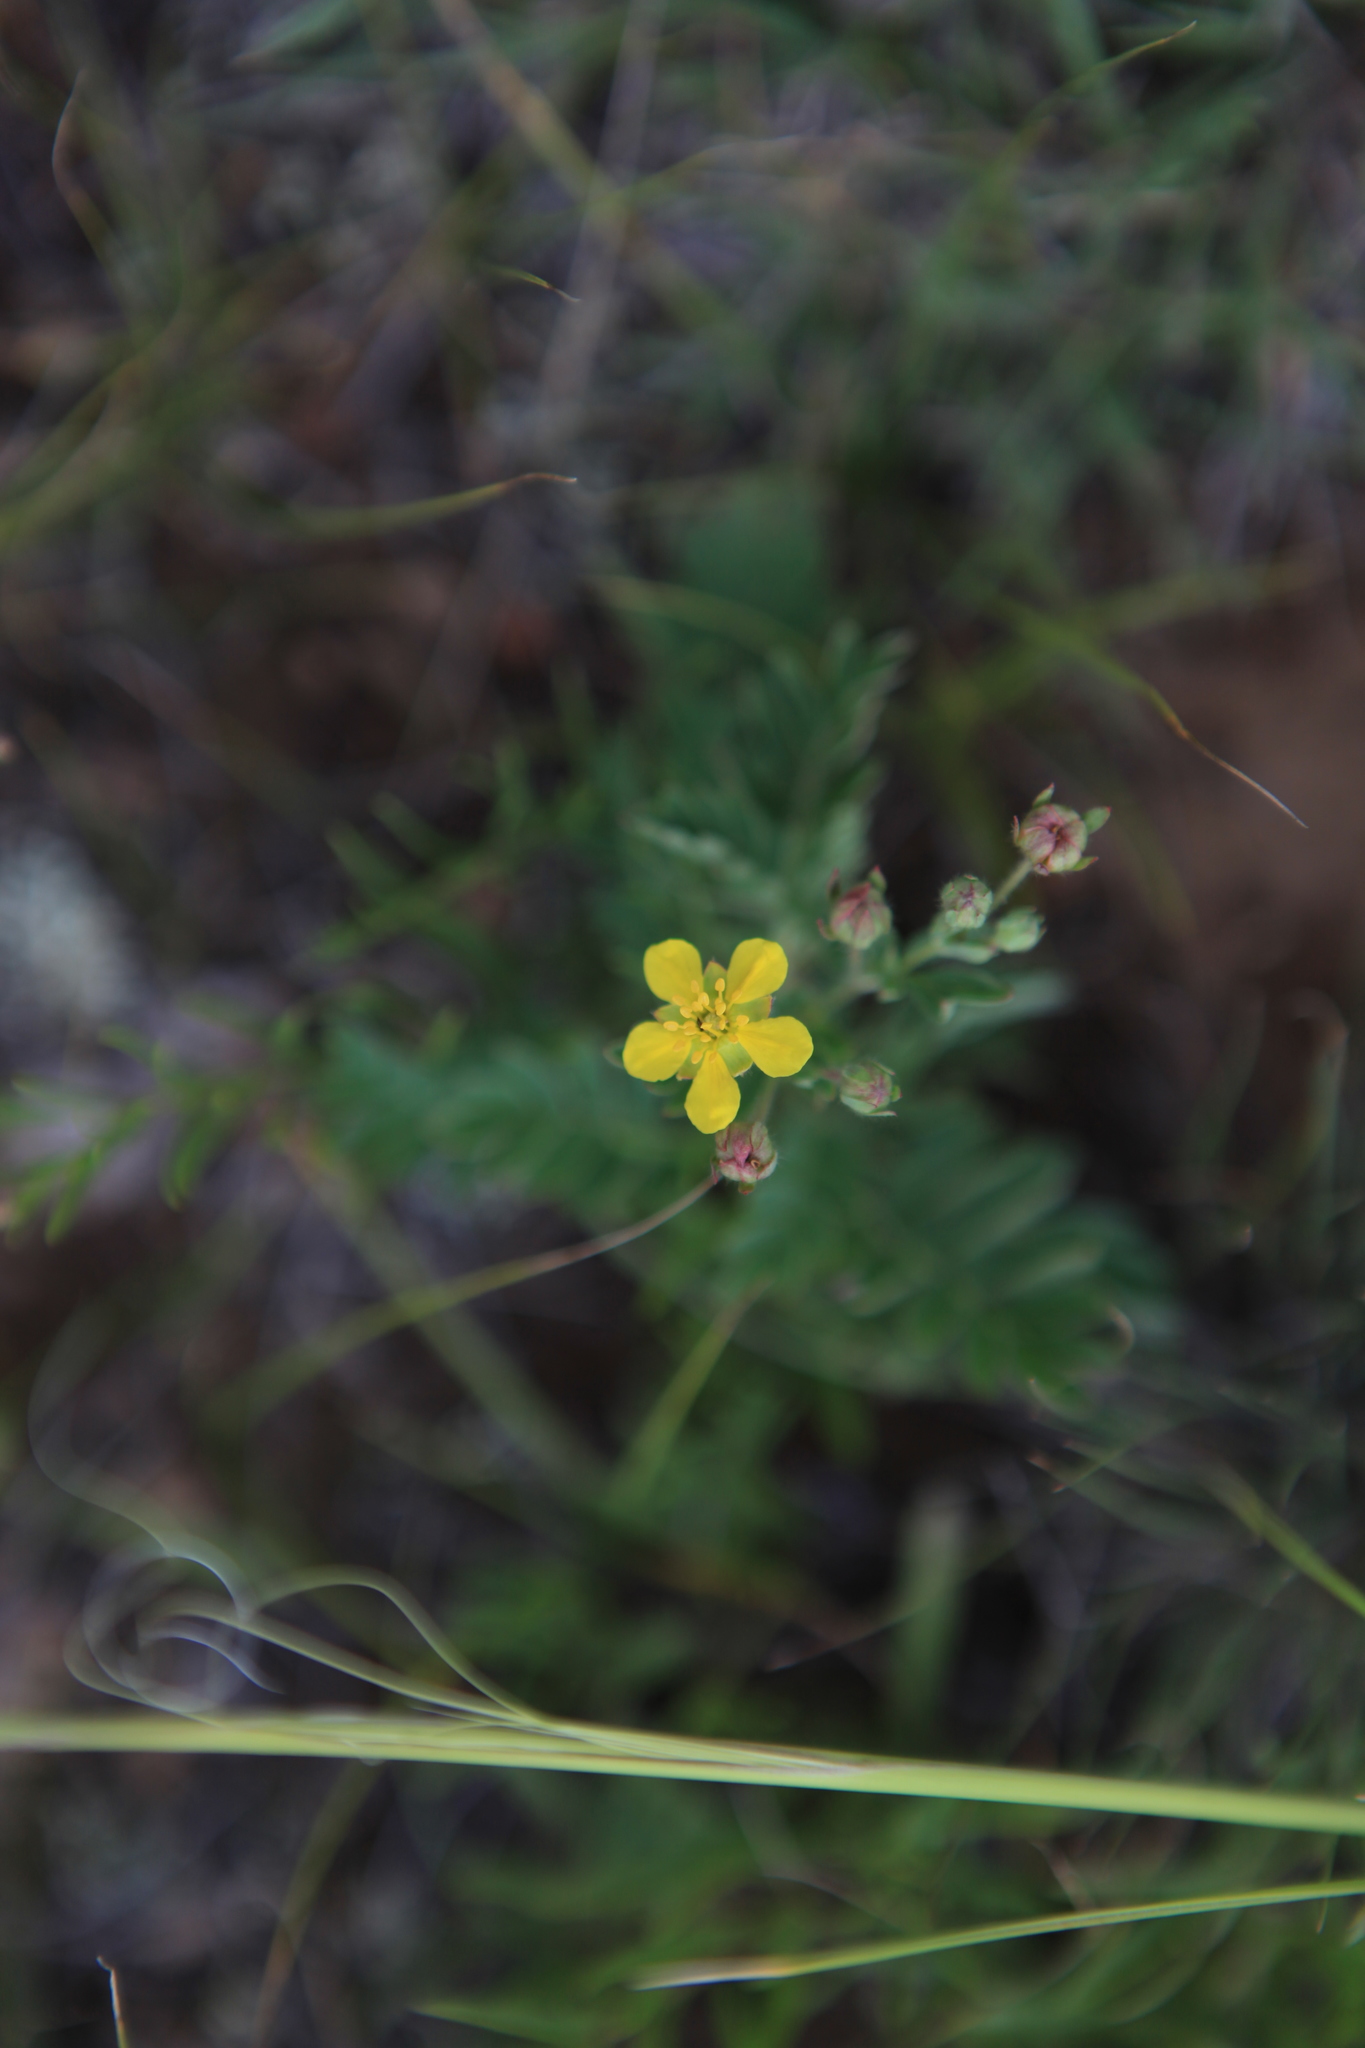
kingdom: Plantae
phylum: Tracheophyta
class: Magnoliopsida
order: Rosales
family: Rosaceae
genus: Sibbaldianthe
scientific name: Sibbaldianthe bifurca
